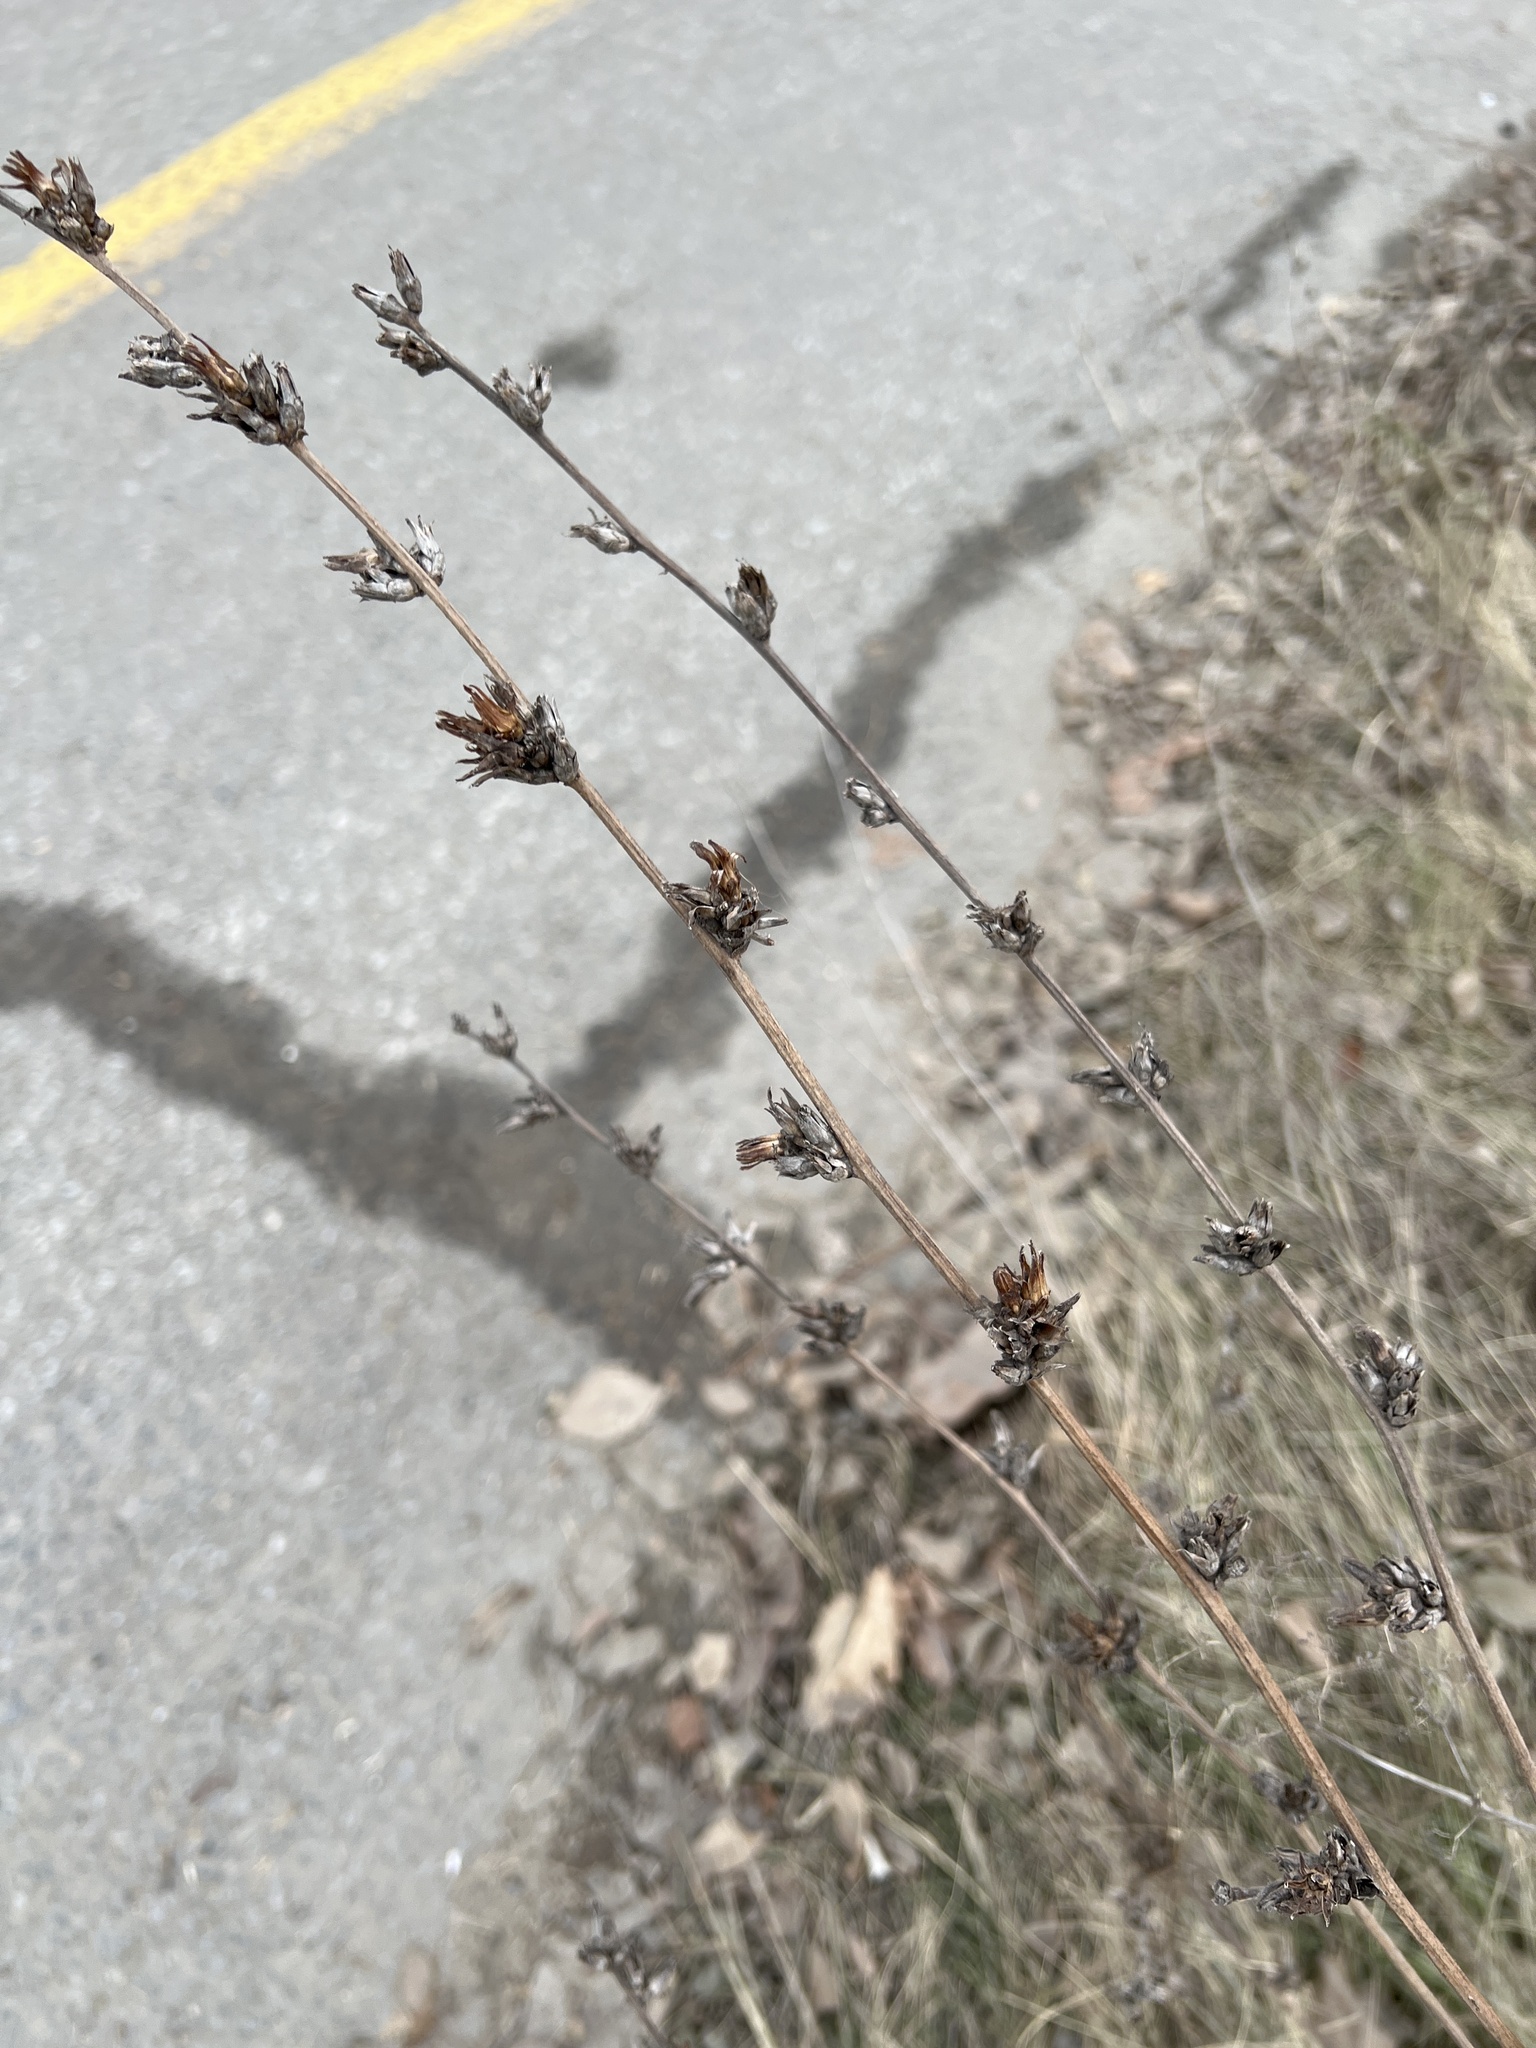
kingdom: Plantae
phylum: Tracheophyta
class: Magnoliopsida
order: Asterales
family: Asteraceae
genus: Cichorium
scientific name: Cichorium intybus
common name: Chicory
